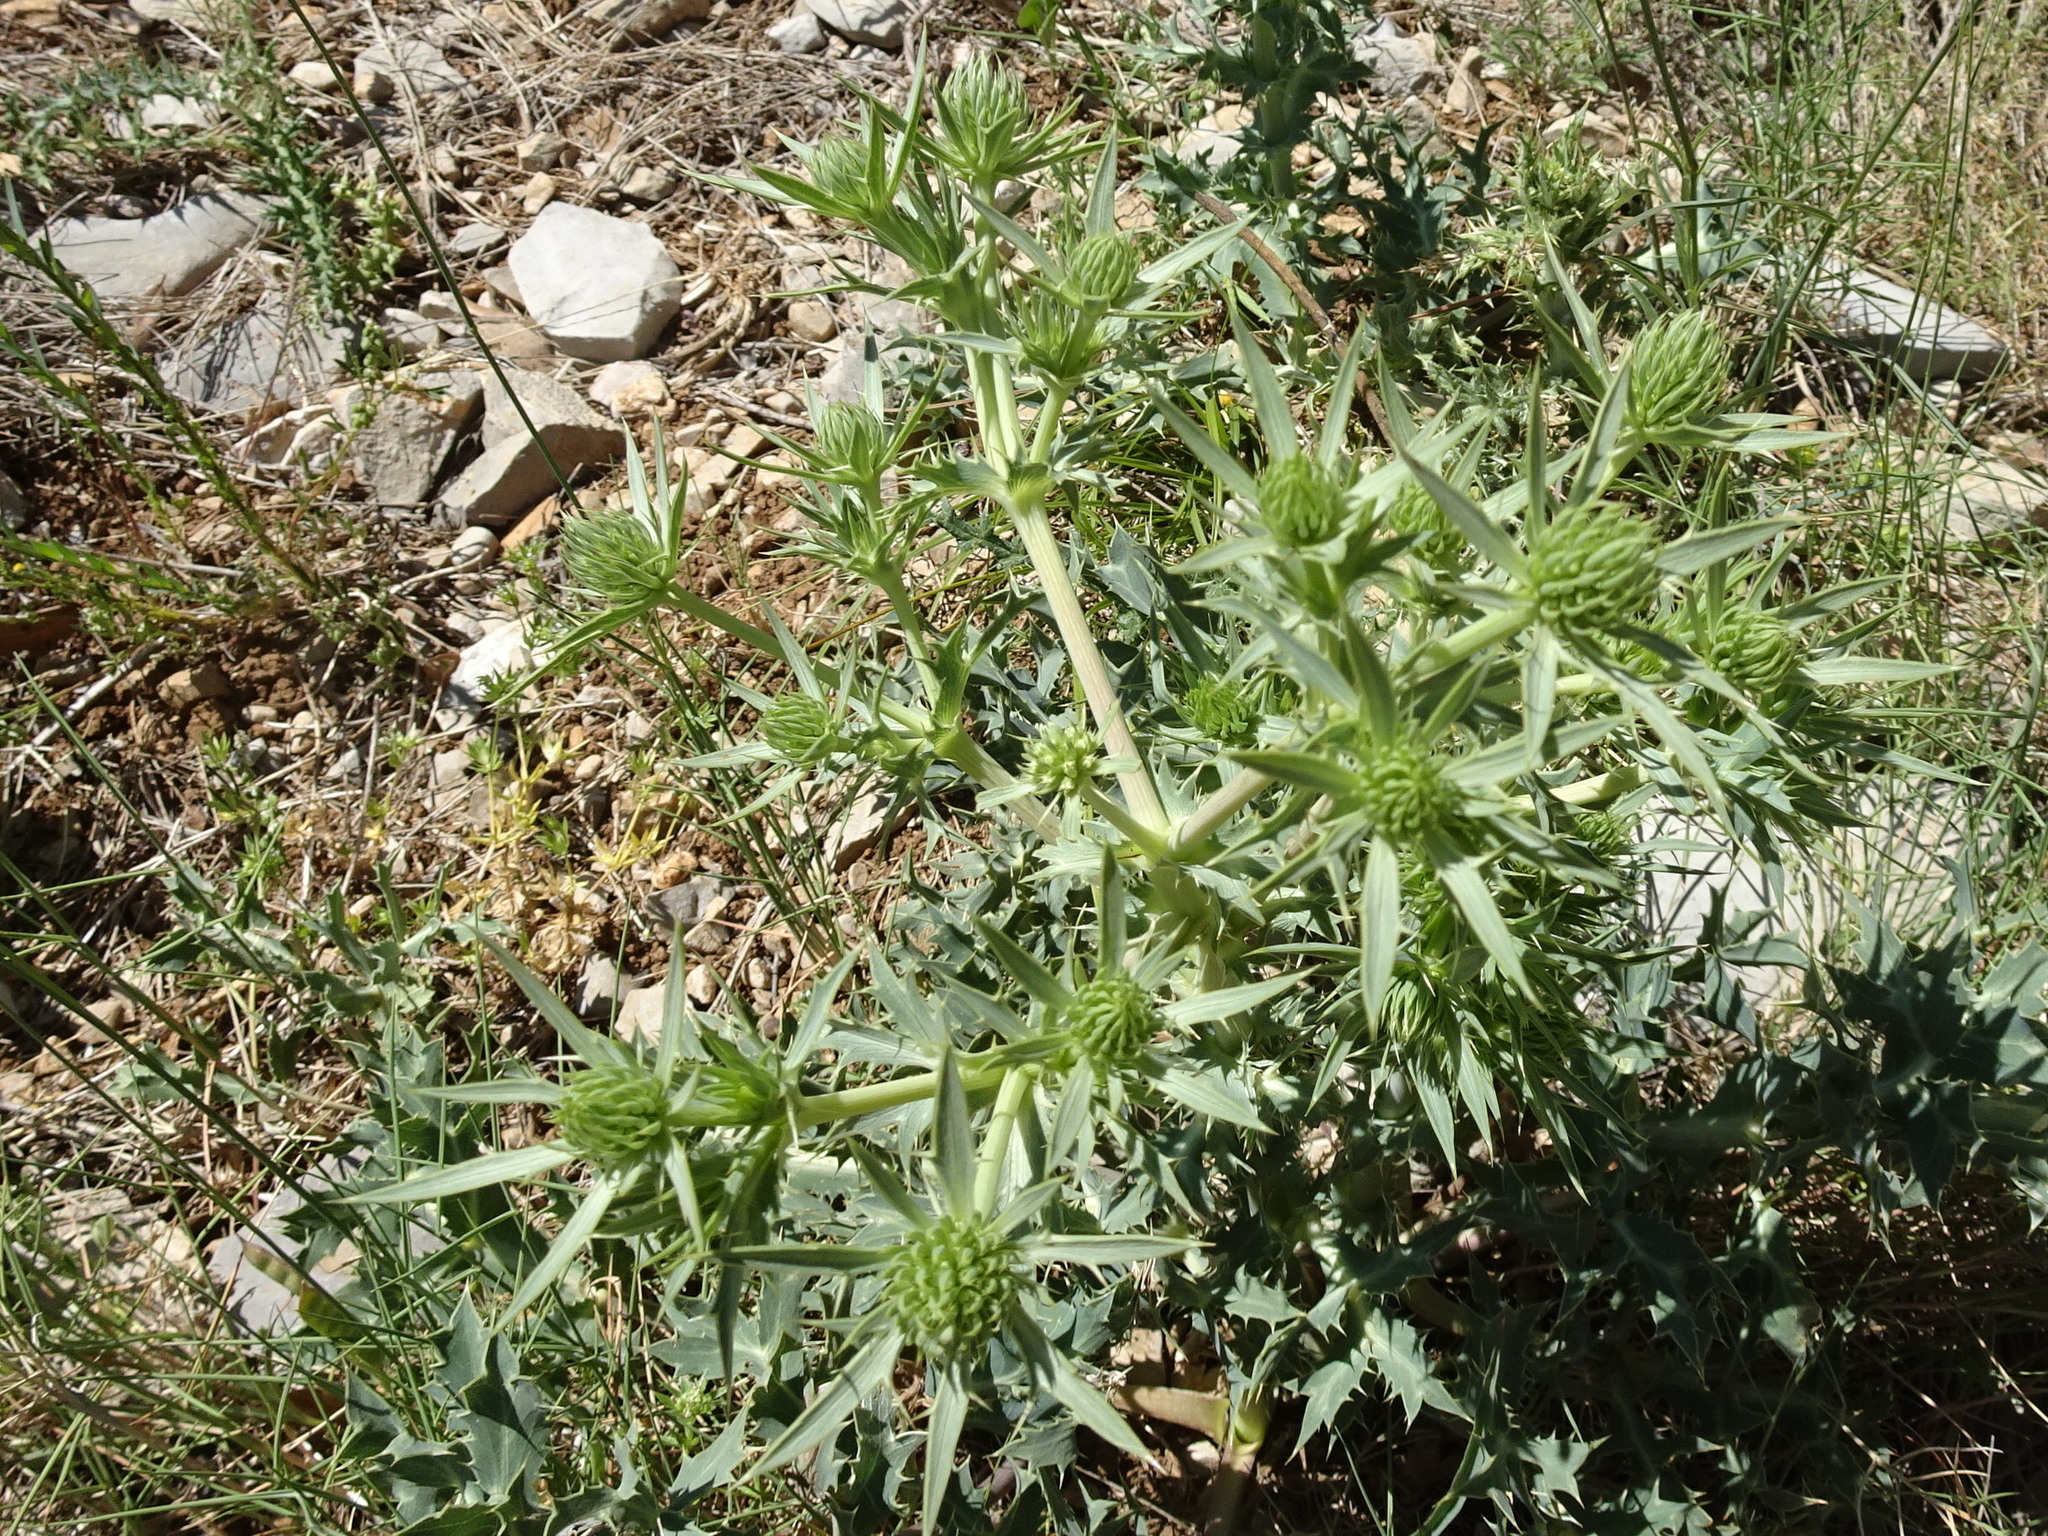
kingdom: Plantae
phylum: Tracheophyta
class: Magnoliopsida
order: Apiales
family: Apiaceae
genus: Eryngium
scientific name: Eryngium campestre
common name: Field eryngo
